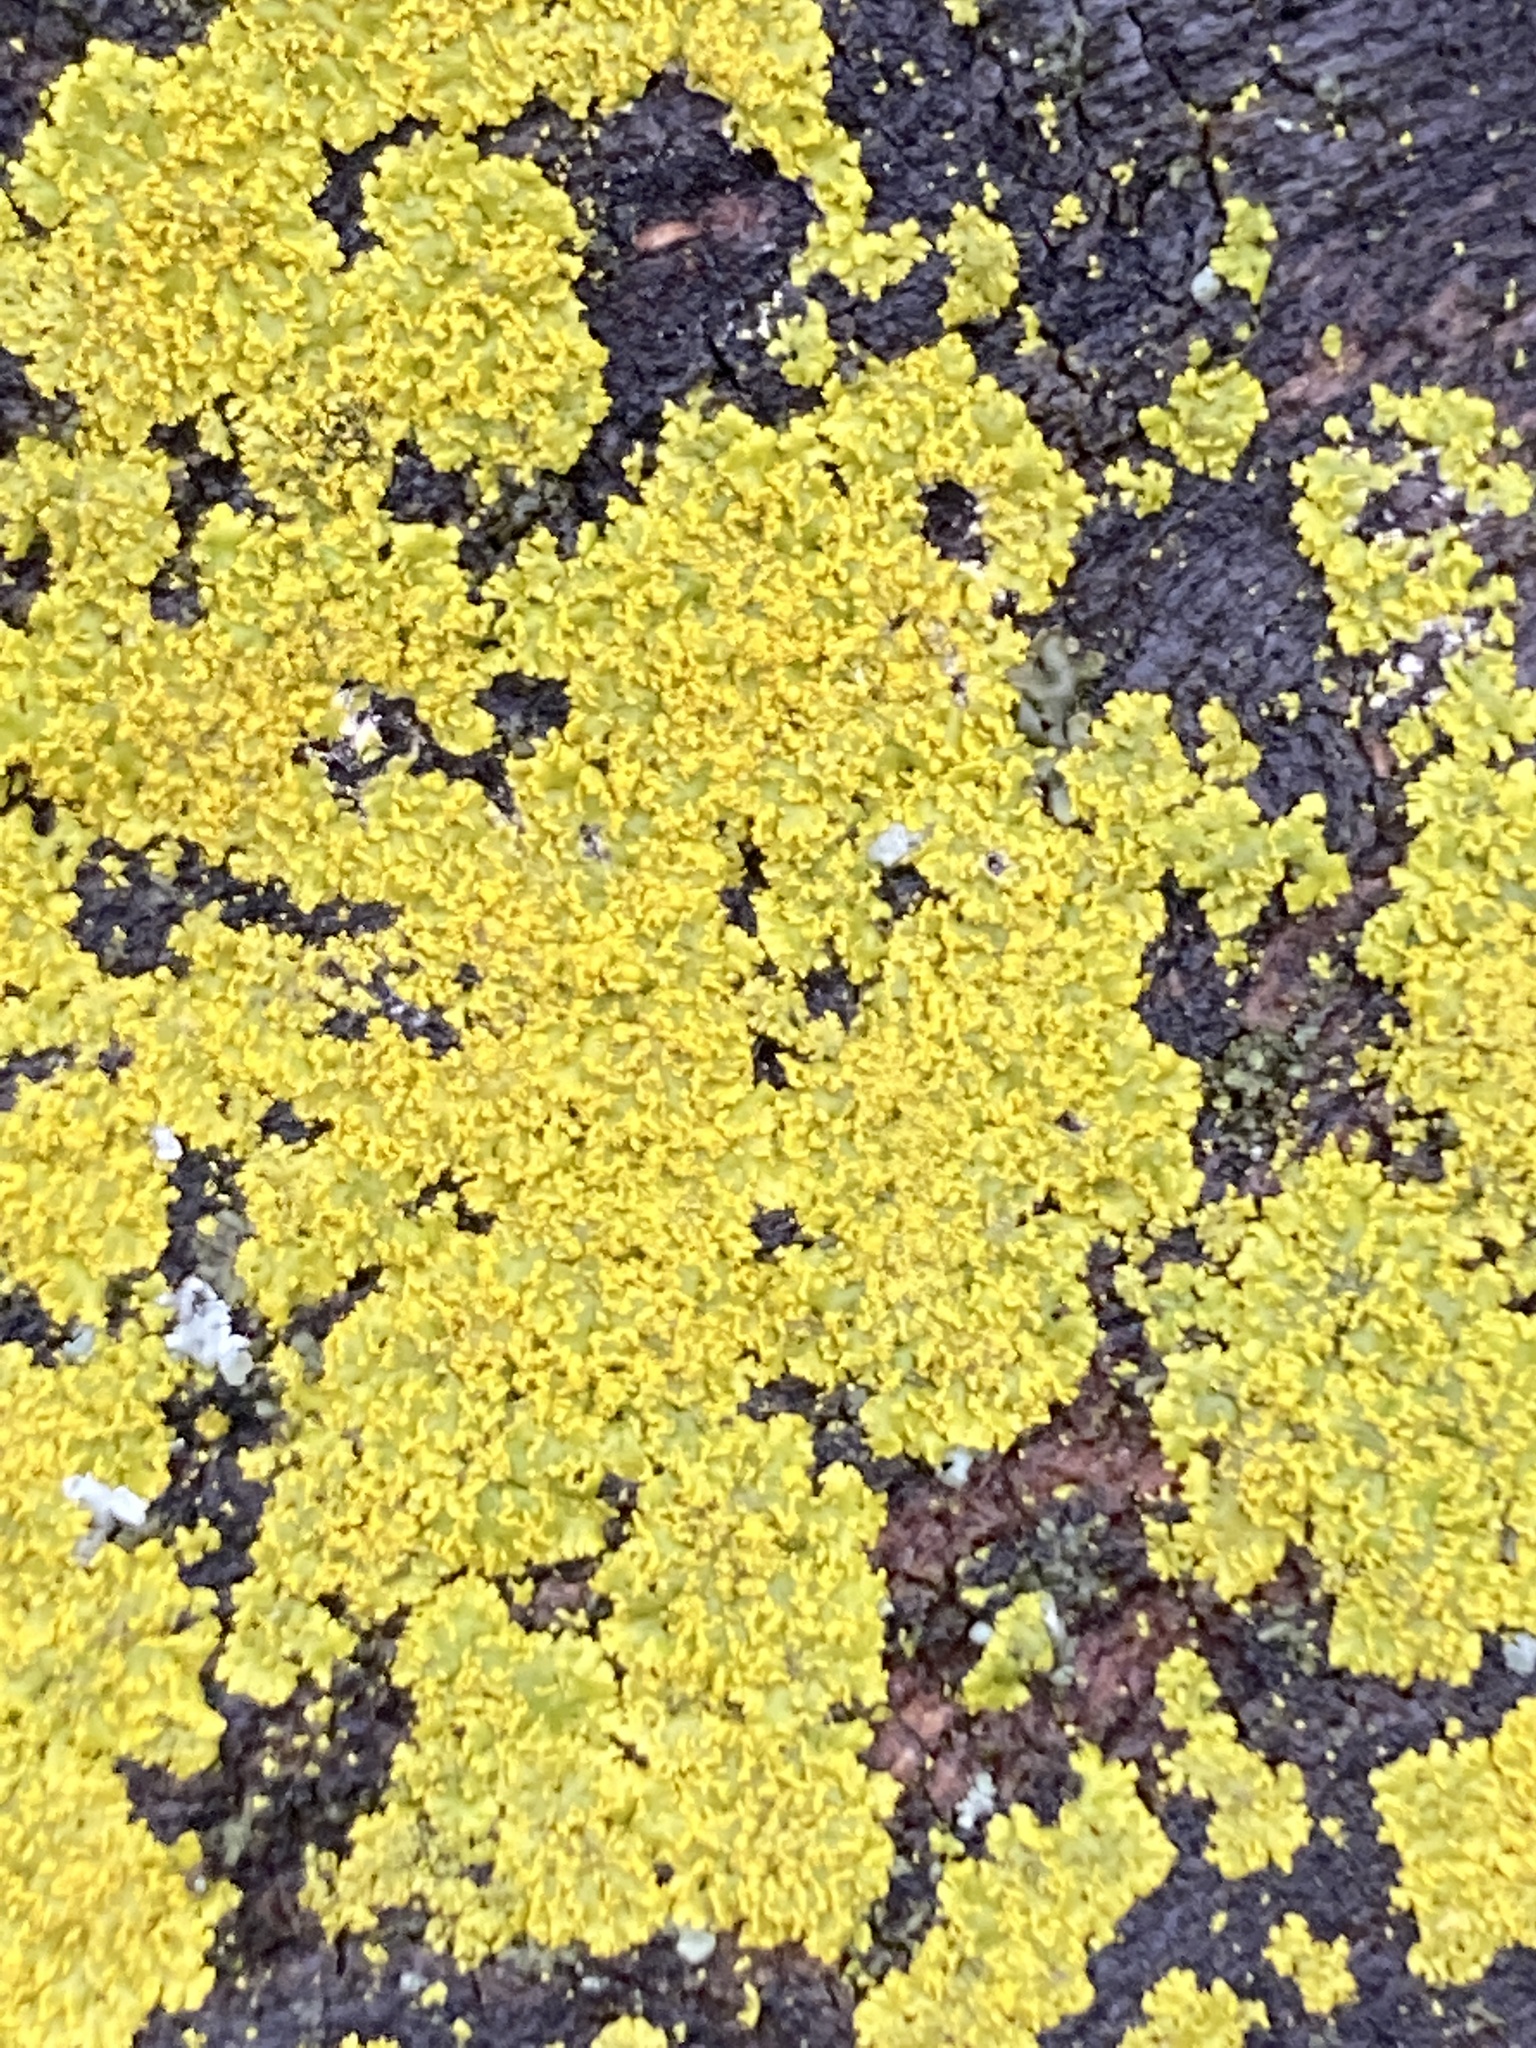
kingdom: Fungi
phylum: Ascomycota
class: Candelariomycetes
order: Candelariales
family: Candelariaceae
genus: Candelaria
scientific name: Candelaria concolor
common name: Candleflame lichen
